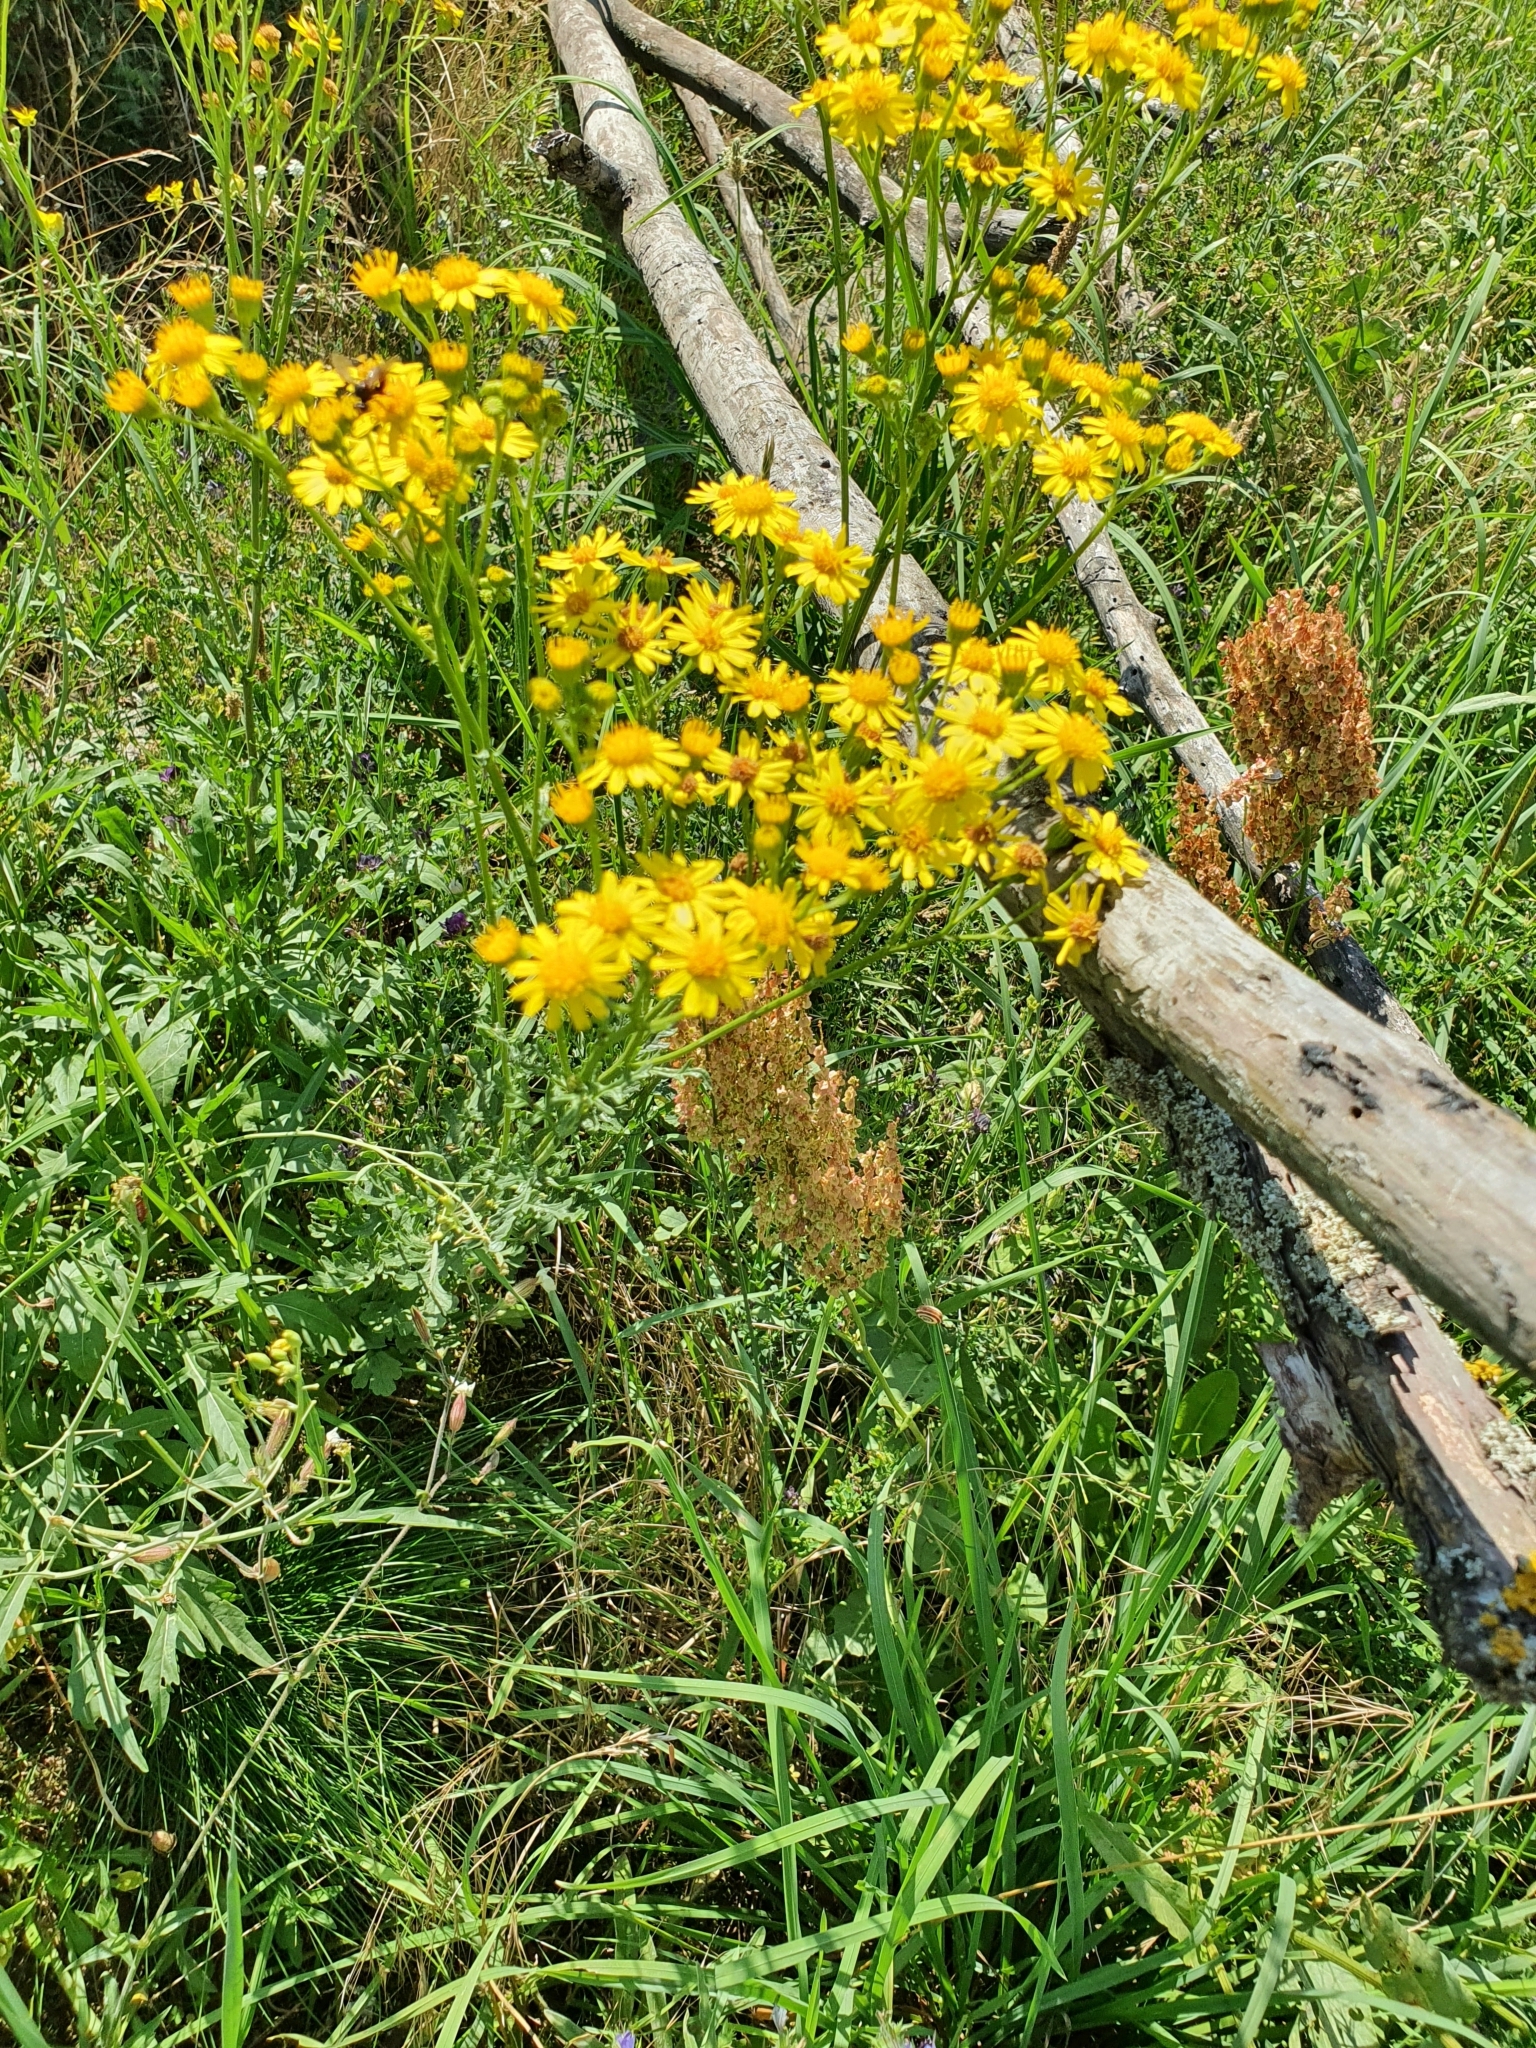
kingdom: Plantae
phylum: Tracheophyta
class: Magnoliopsida
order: Asterales
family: Asteraceae
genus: Jacobaea
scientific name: Jacobaea vulgaris
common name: Stinking willie
